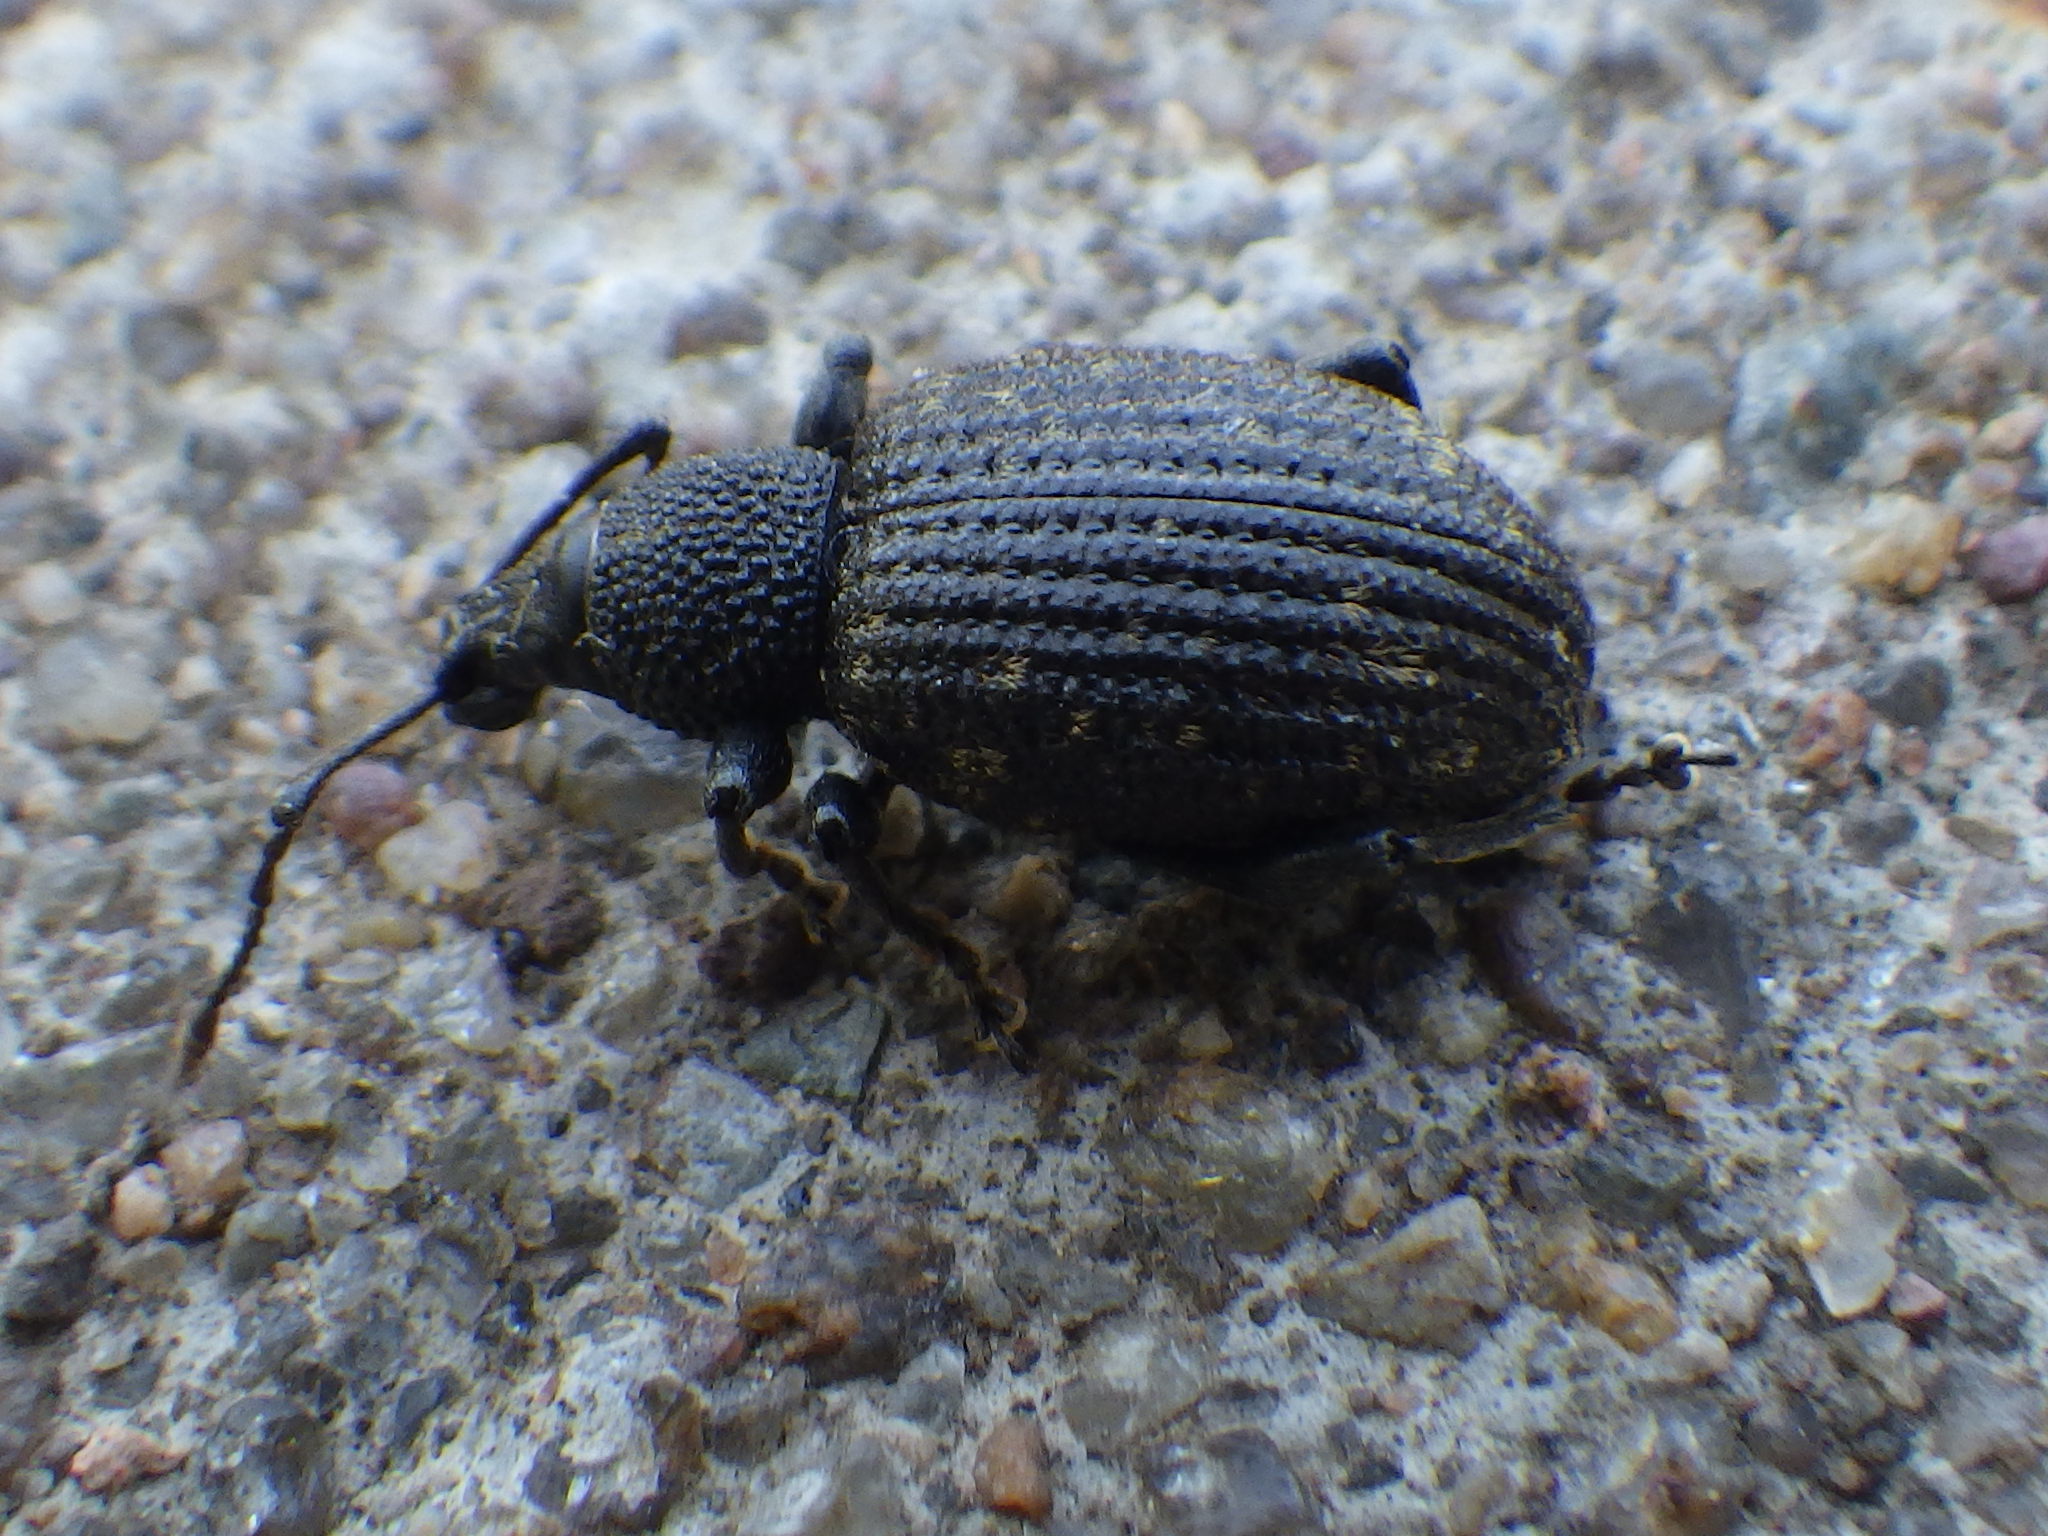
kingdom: Animalia
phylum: Arthropoda
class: Insecta
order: Coleoptera
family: Curculionidae
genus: Otiorhynchus
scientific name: Otiorhynchus sulcatus
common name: Black vine weevil
